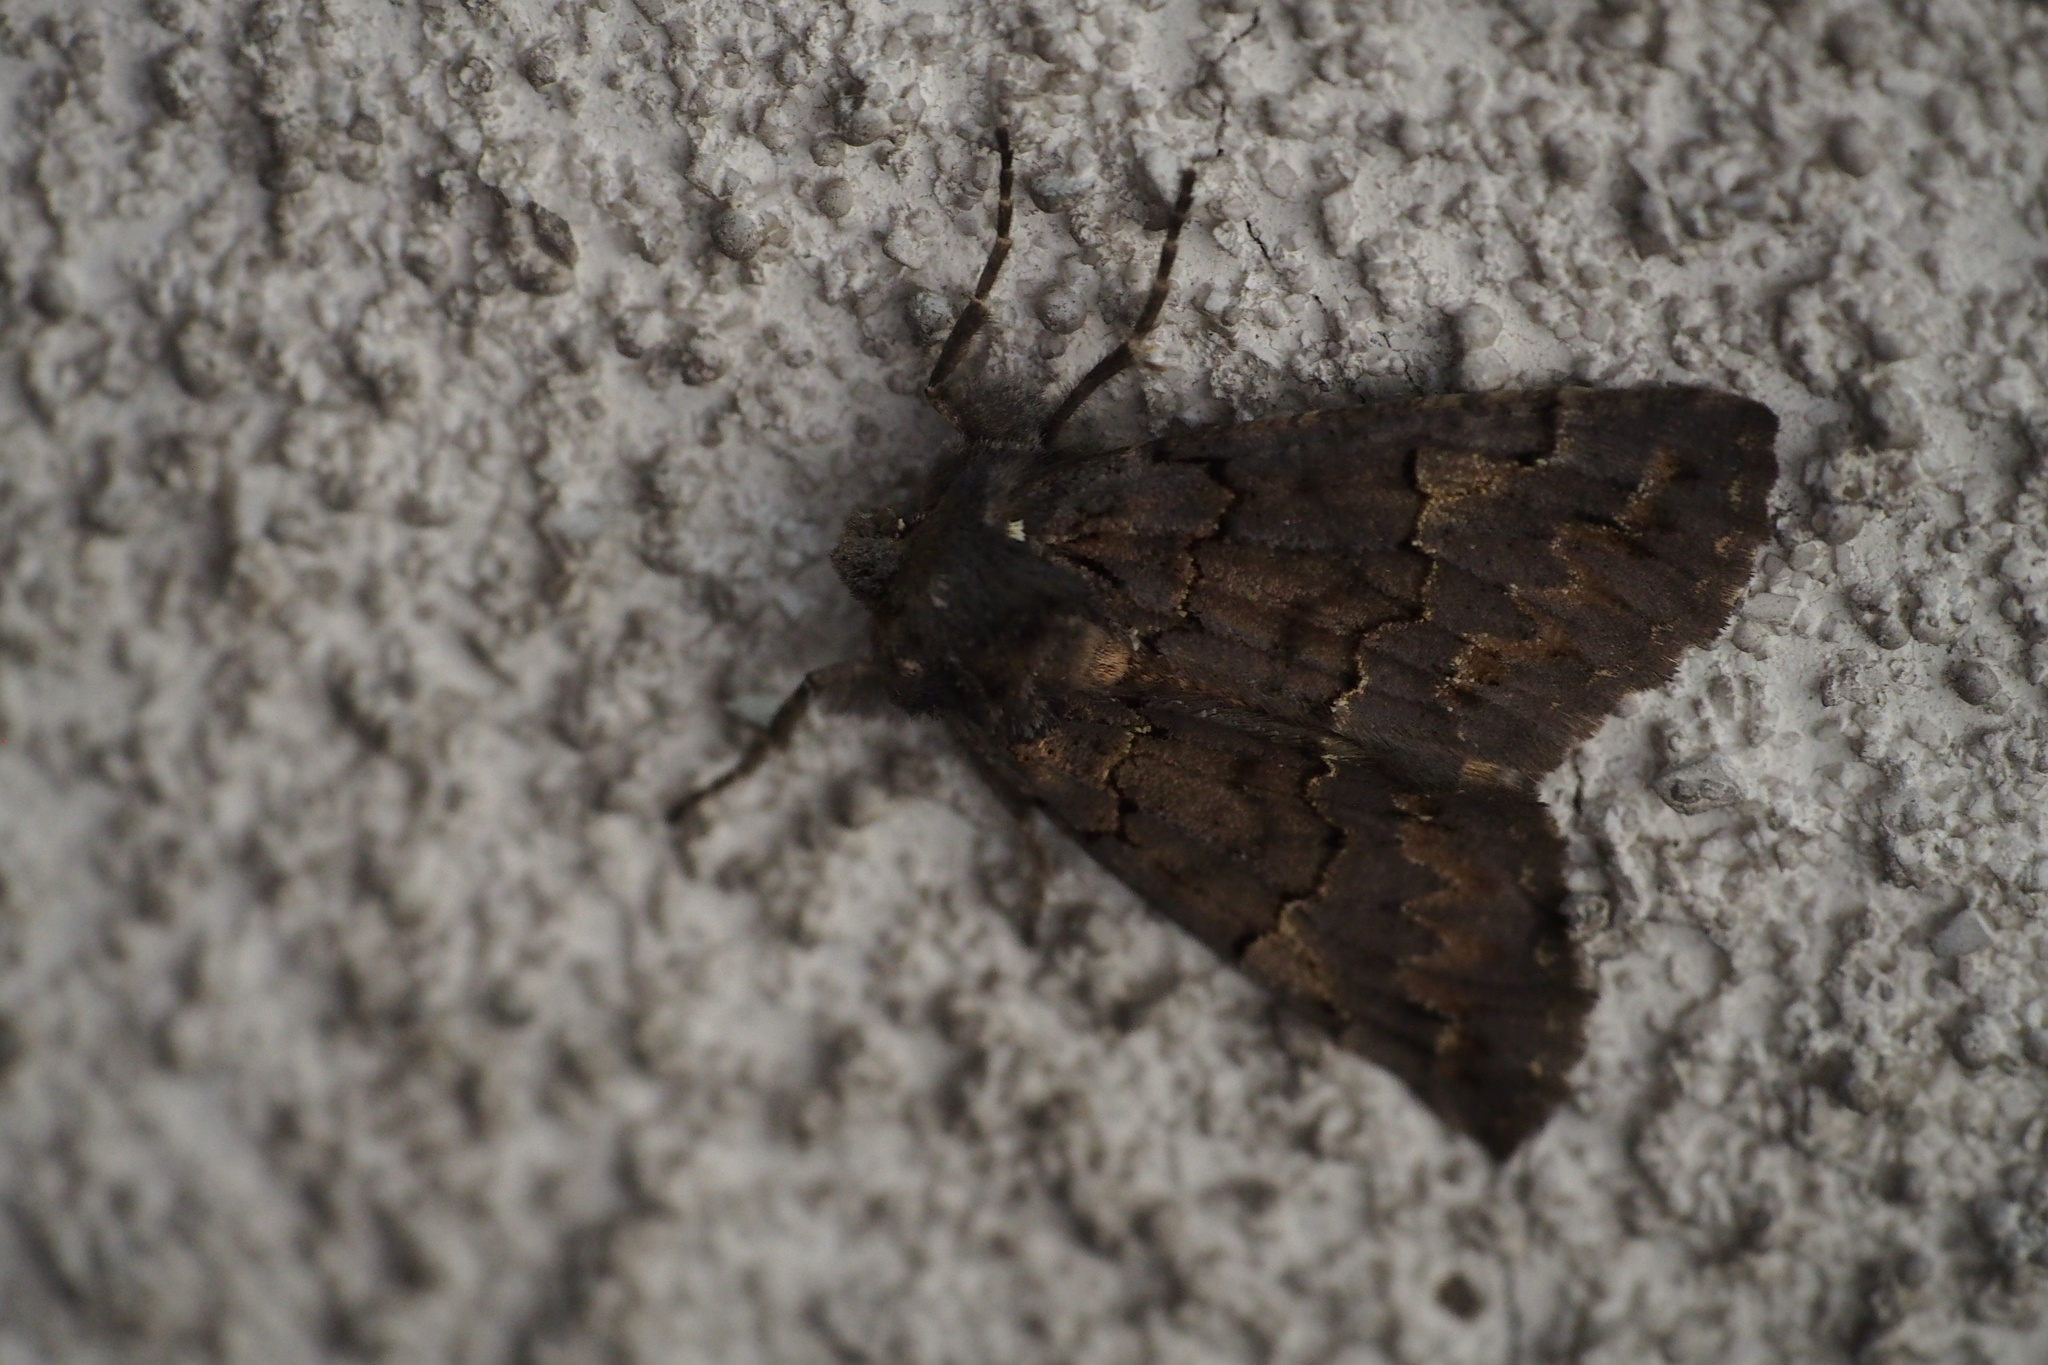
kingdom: Animalia
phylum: Arthropoda
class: Insecta
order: Lepidoptera
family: Geometridae
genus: Pachyligia
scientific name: Pachyligia dolosa
